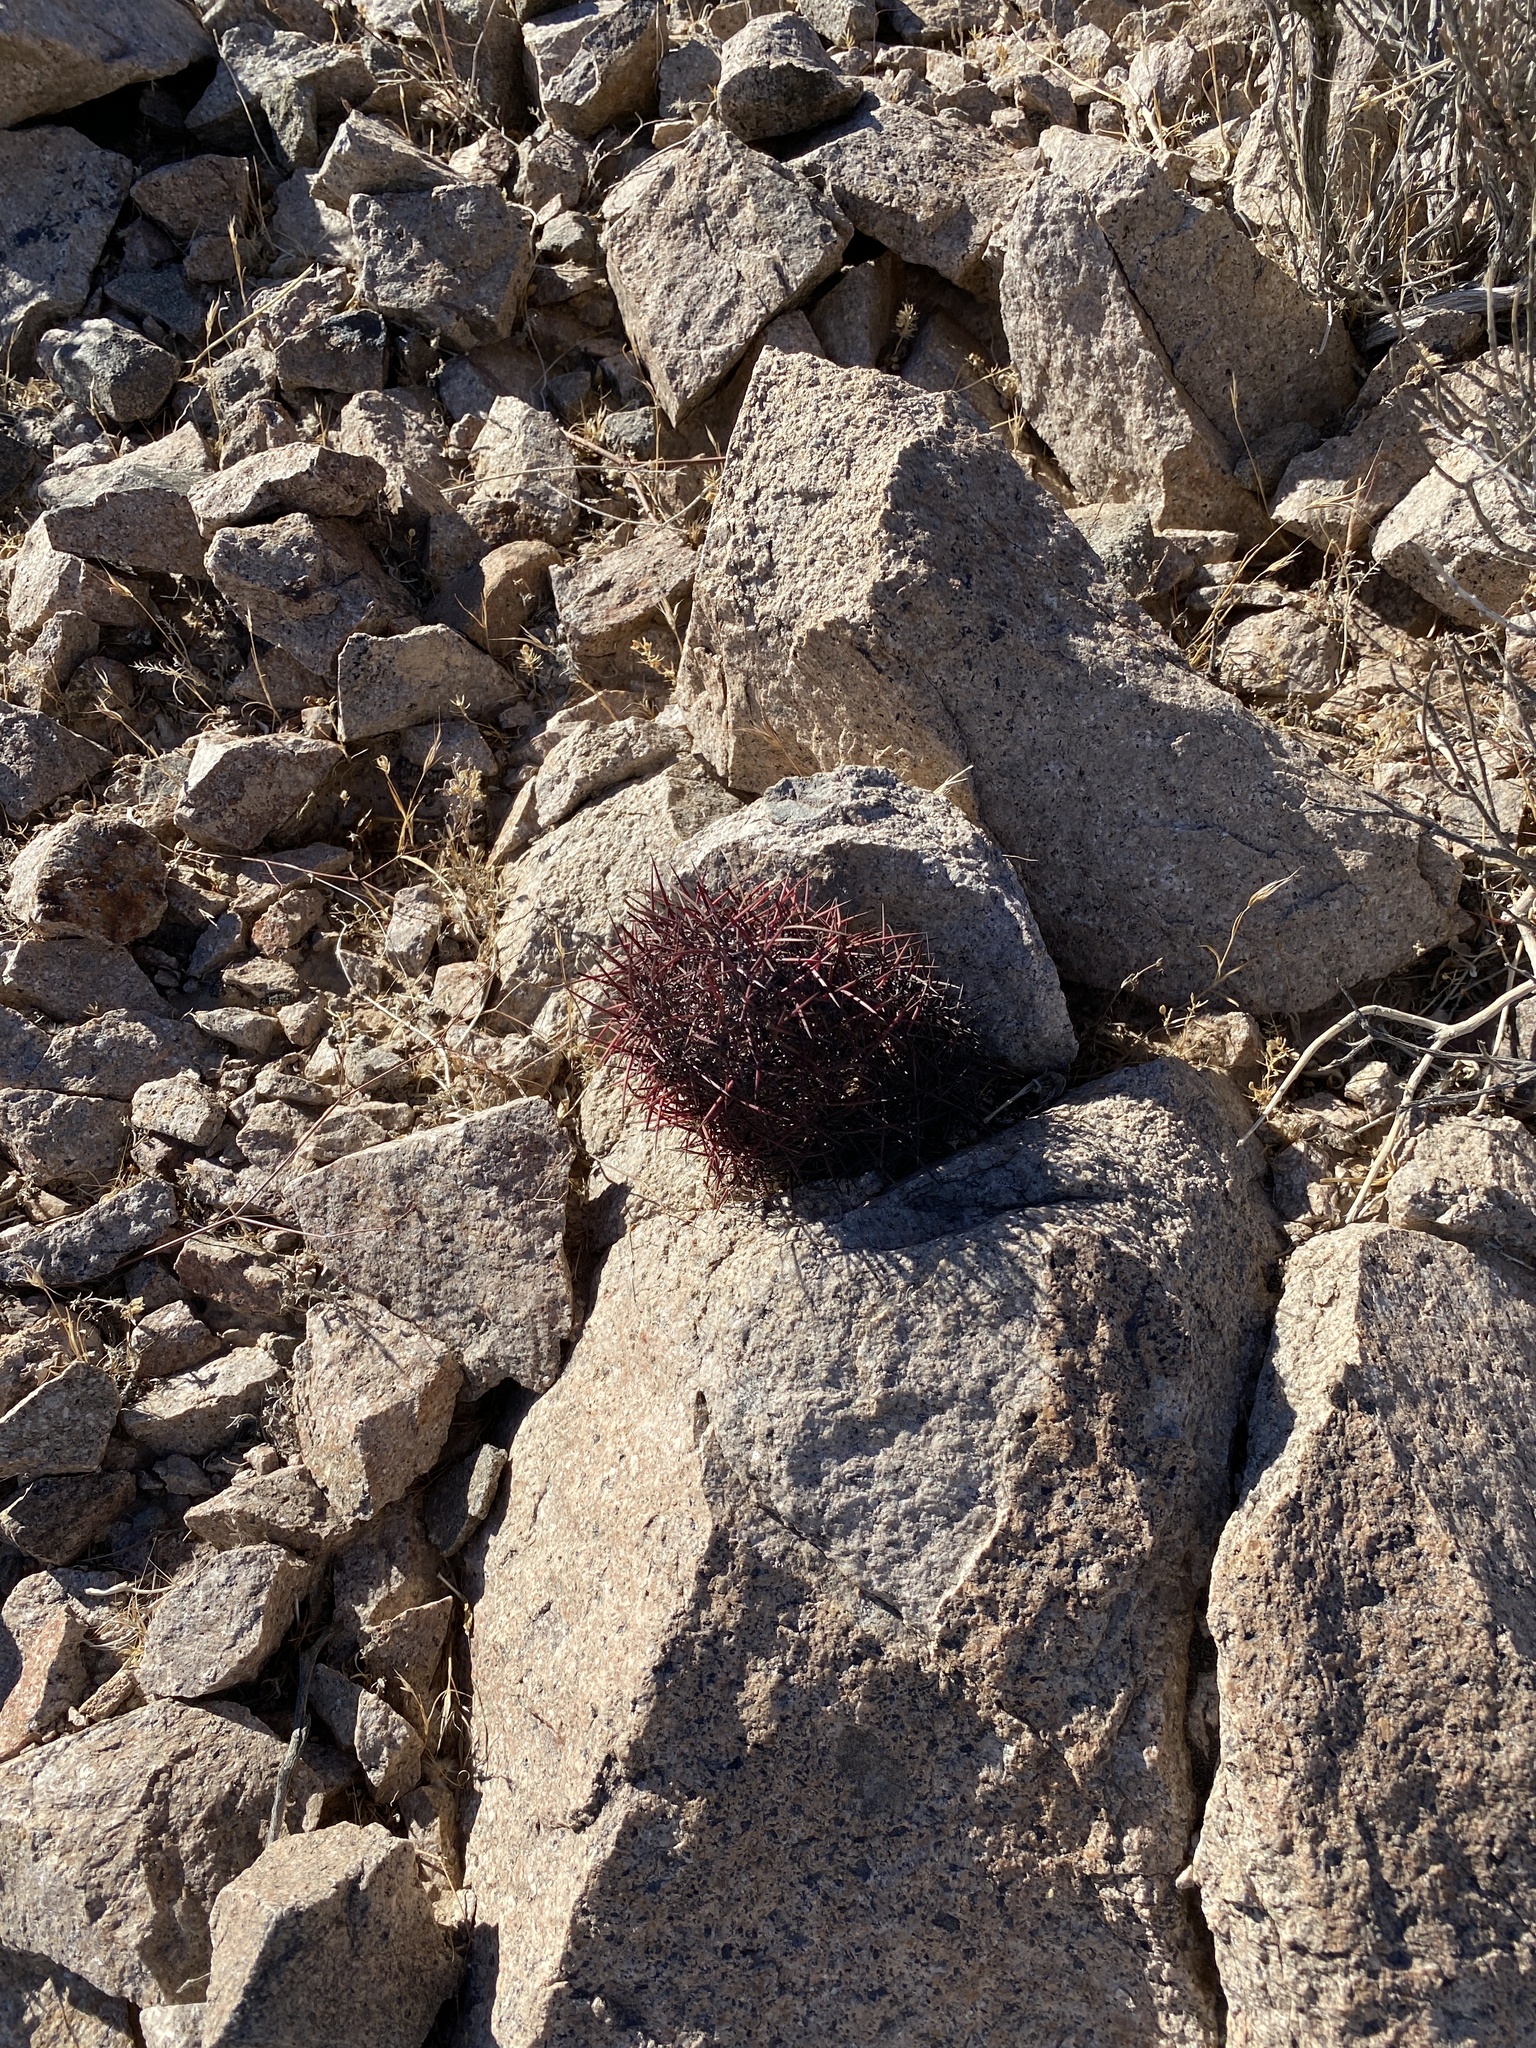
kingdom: Plantae
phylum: Tracheophyta
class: Magnoliopsida
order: Caryophyllales
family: Cactaceae
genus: Sclerocactus
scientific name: Sclerocactus johnsonii
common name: Eight-spine fishhook cactus
